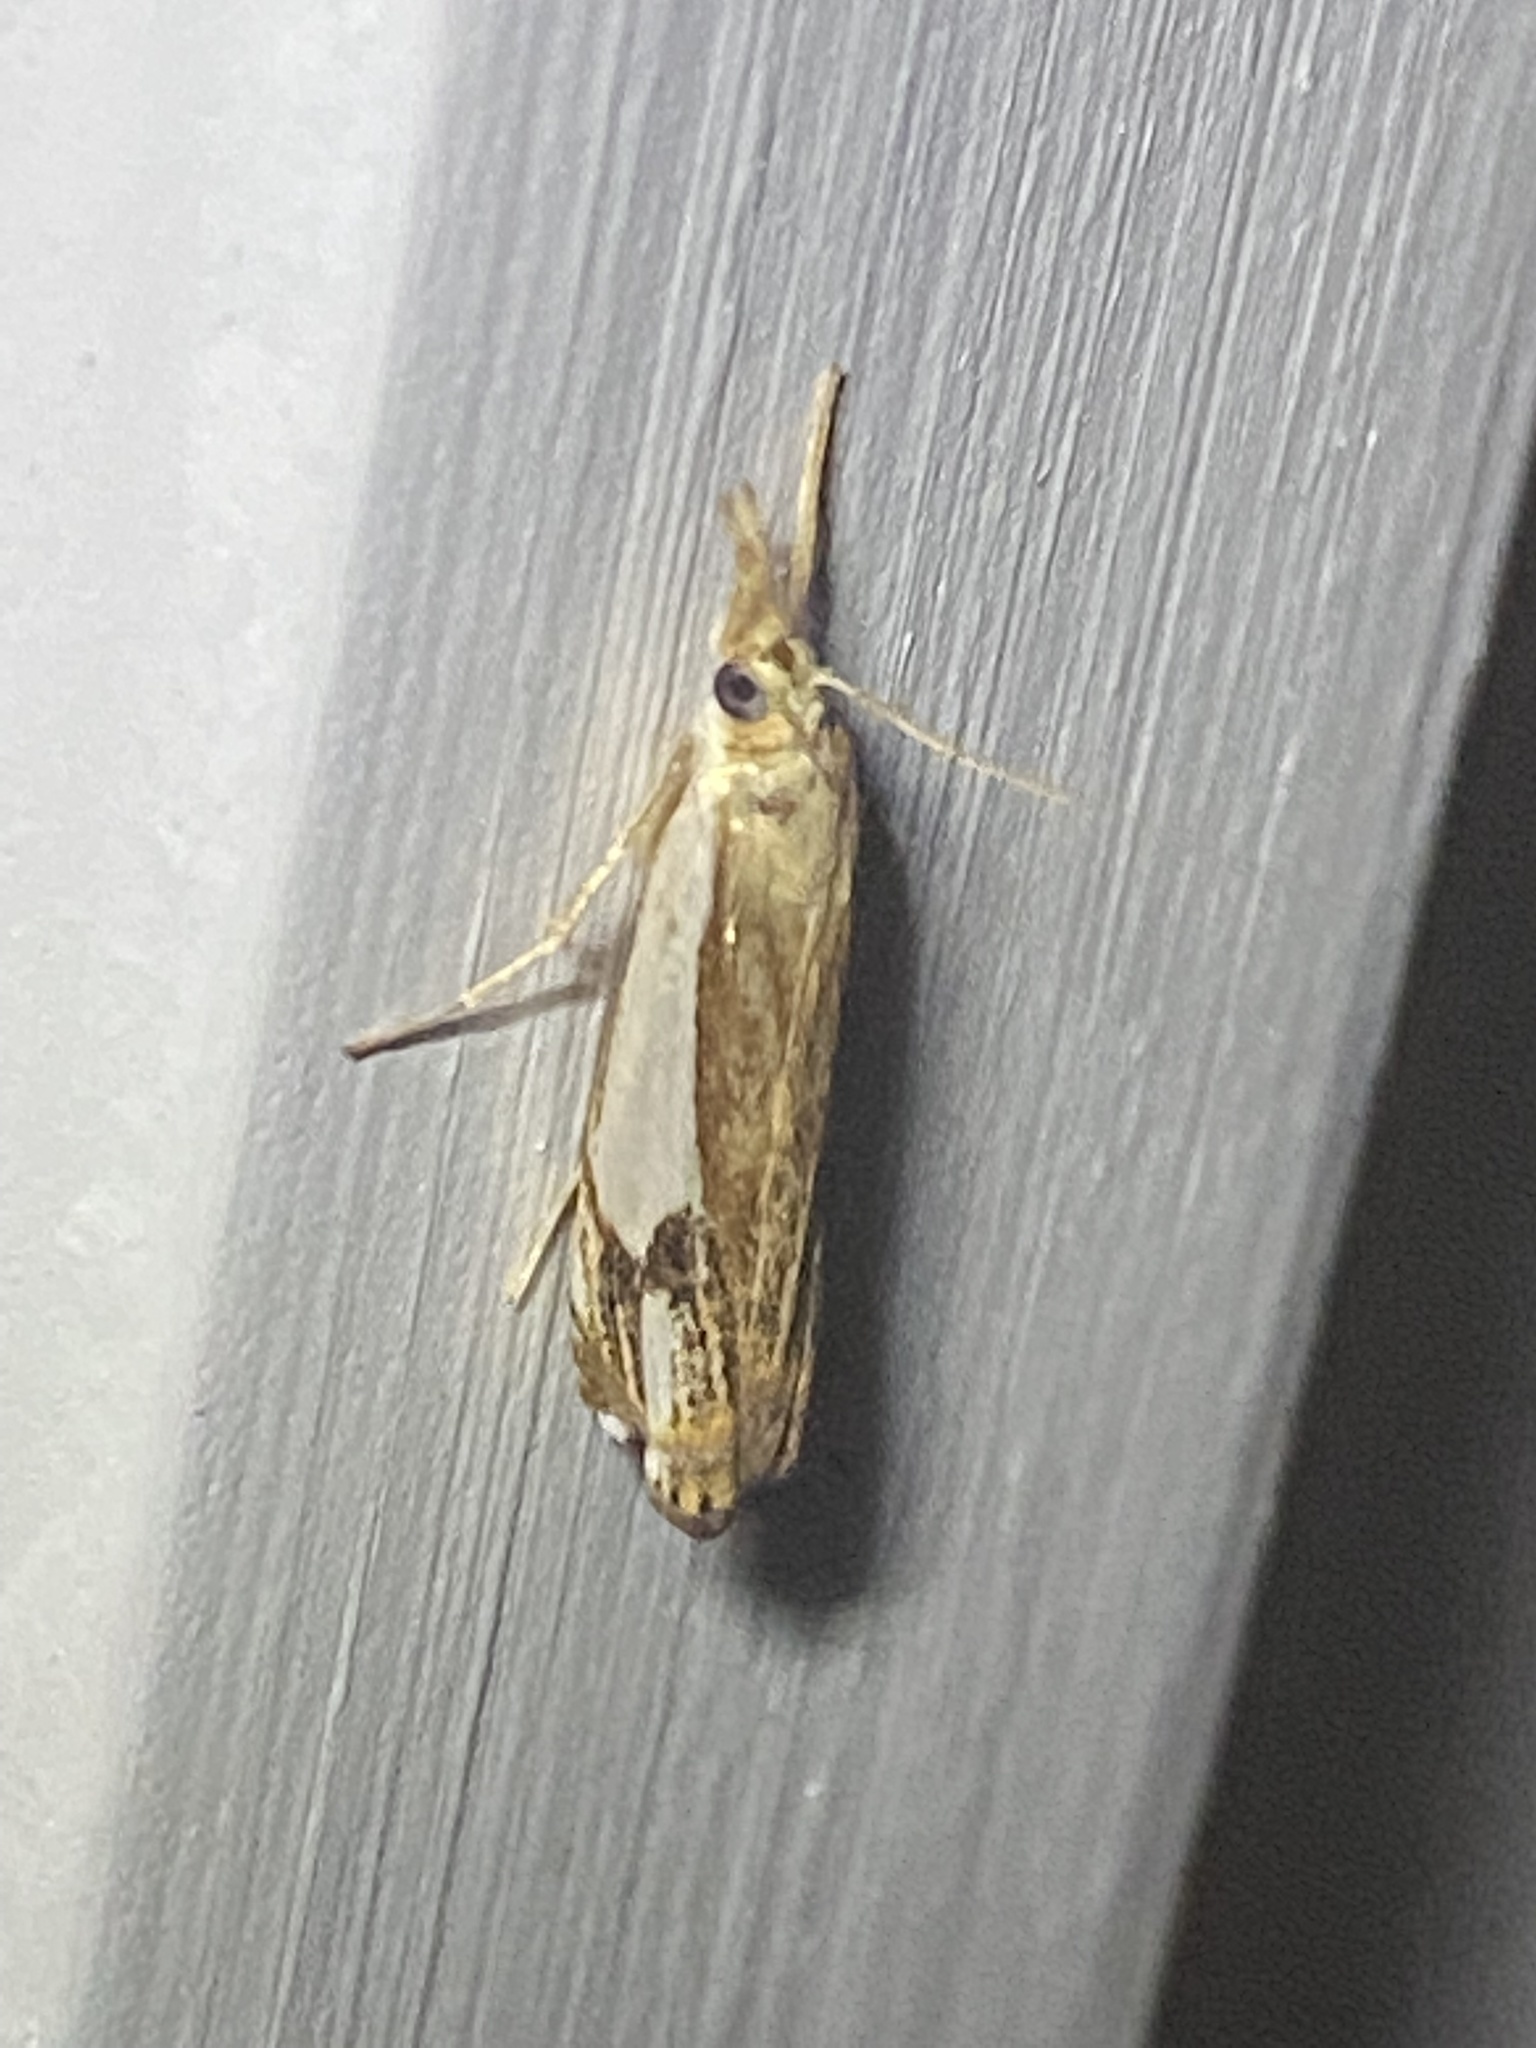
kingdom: Animalia
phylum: Arthropoda
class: Insecta
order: Lepidoptera
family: Crambidae
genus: Crambus
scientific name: Crambus agitatellus
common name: Double-banded grass-veneer
